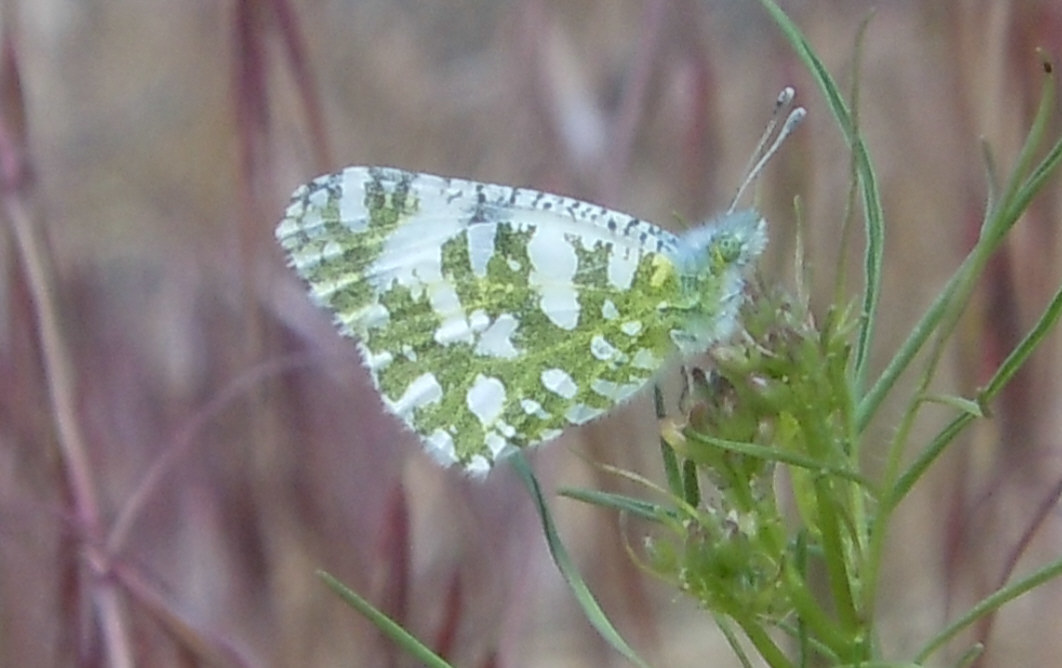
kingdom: Animalia
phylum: Arthropoda
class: Insecta
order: Lepidoptera
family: Pieridae
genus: Euchloe
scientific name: Euchloe lotta
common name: Desert marble
